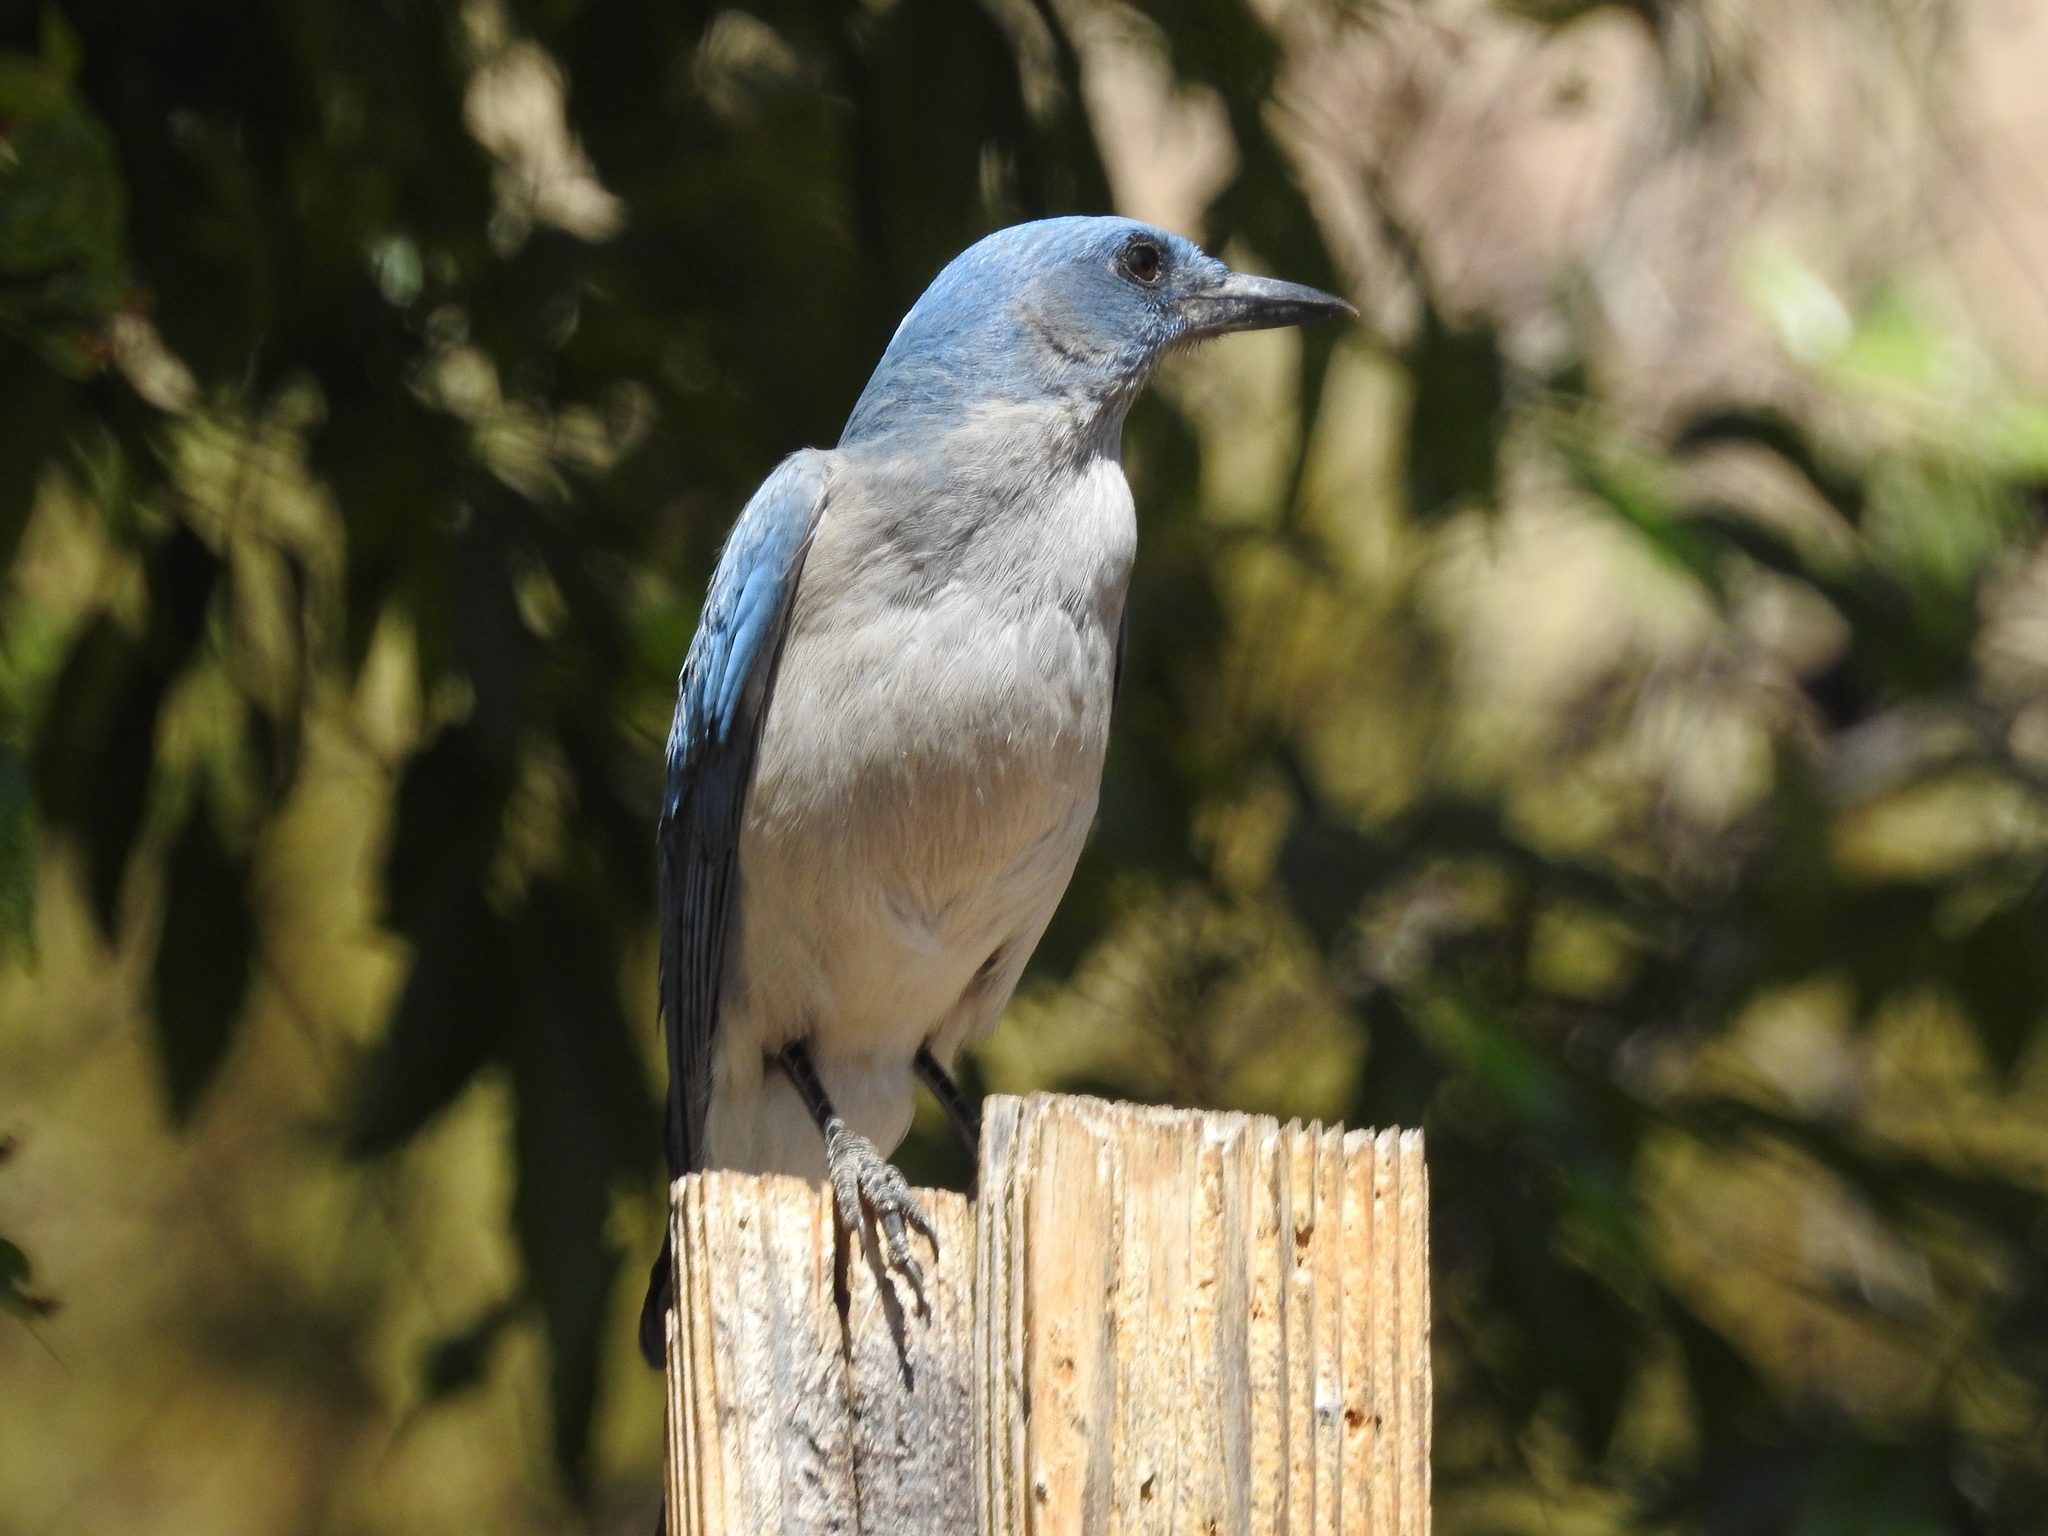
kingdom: Animalia
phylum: Chordata
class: Aves
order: Passeriformes
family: Corvidae
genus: Aphelocoma
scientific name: Aphelocoma wollweberi
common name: Mexican jay
